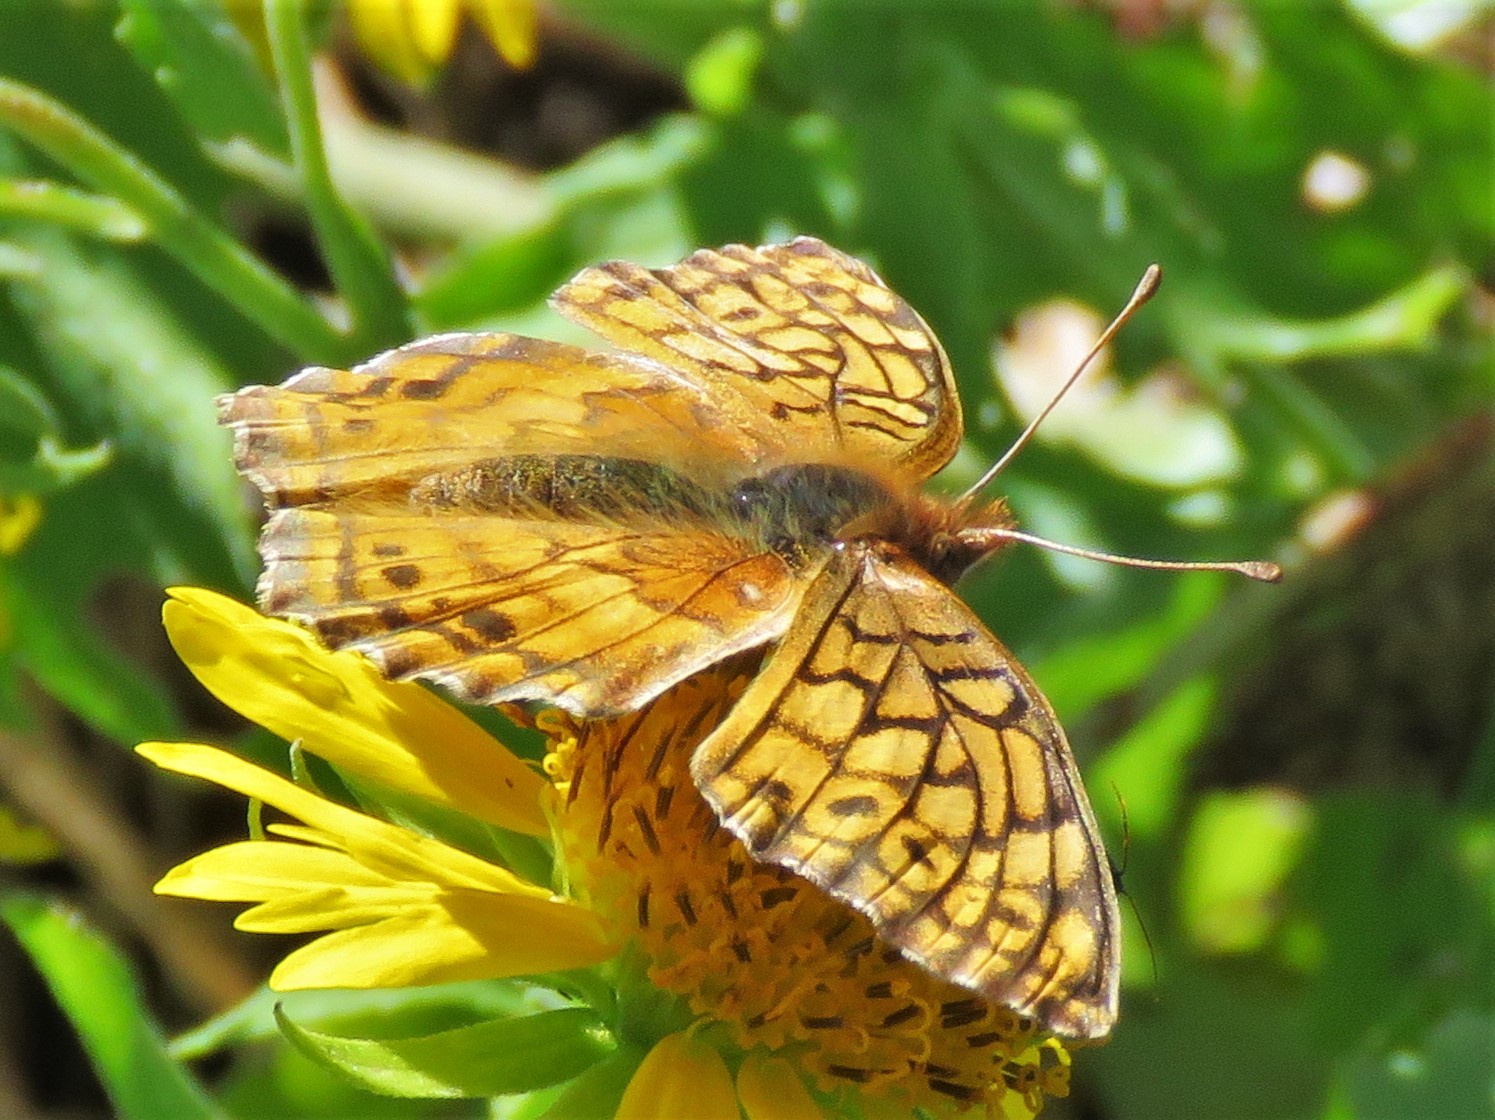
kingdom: Animalia
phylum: Arthropoda
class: Insecta
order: Lepidoptera
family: Nymphalidae
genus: Euptoieta
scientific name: Euptoieta claudia
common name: Variegated fritillary
